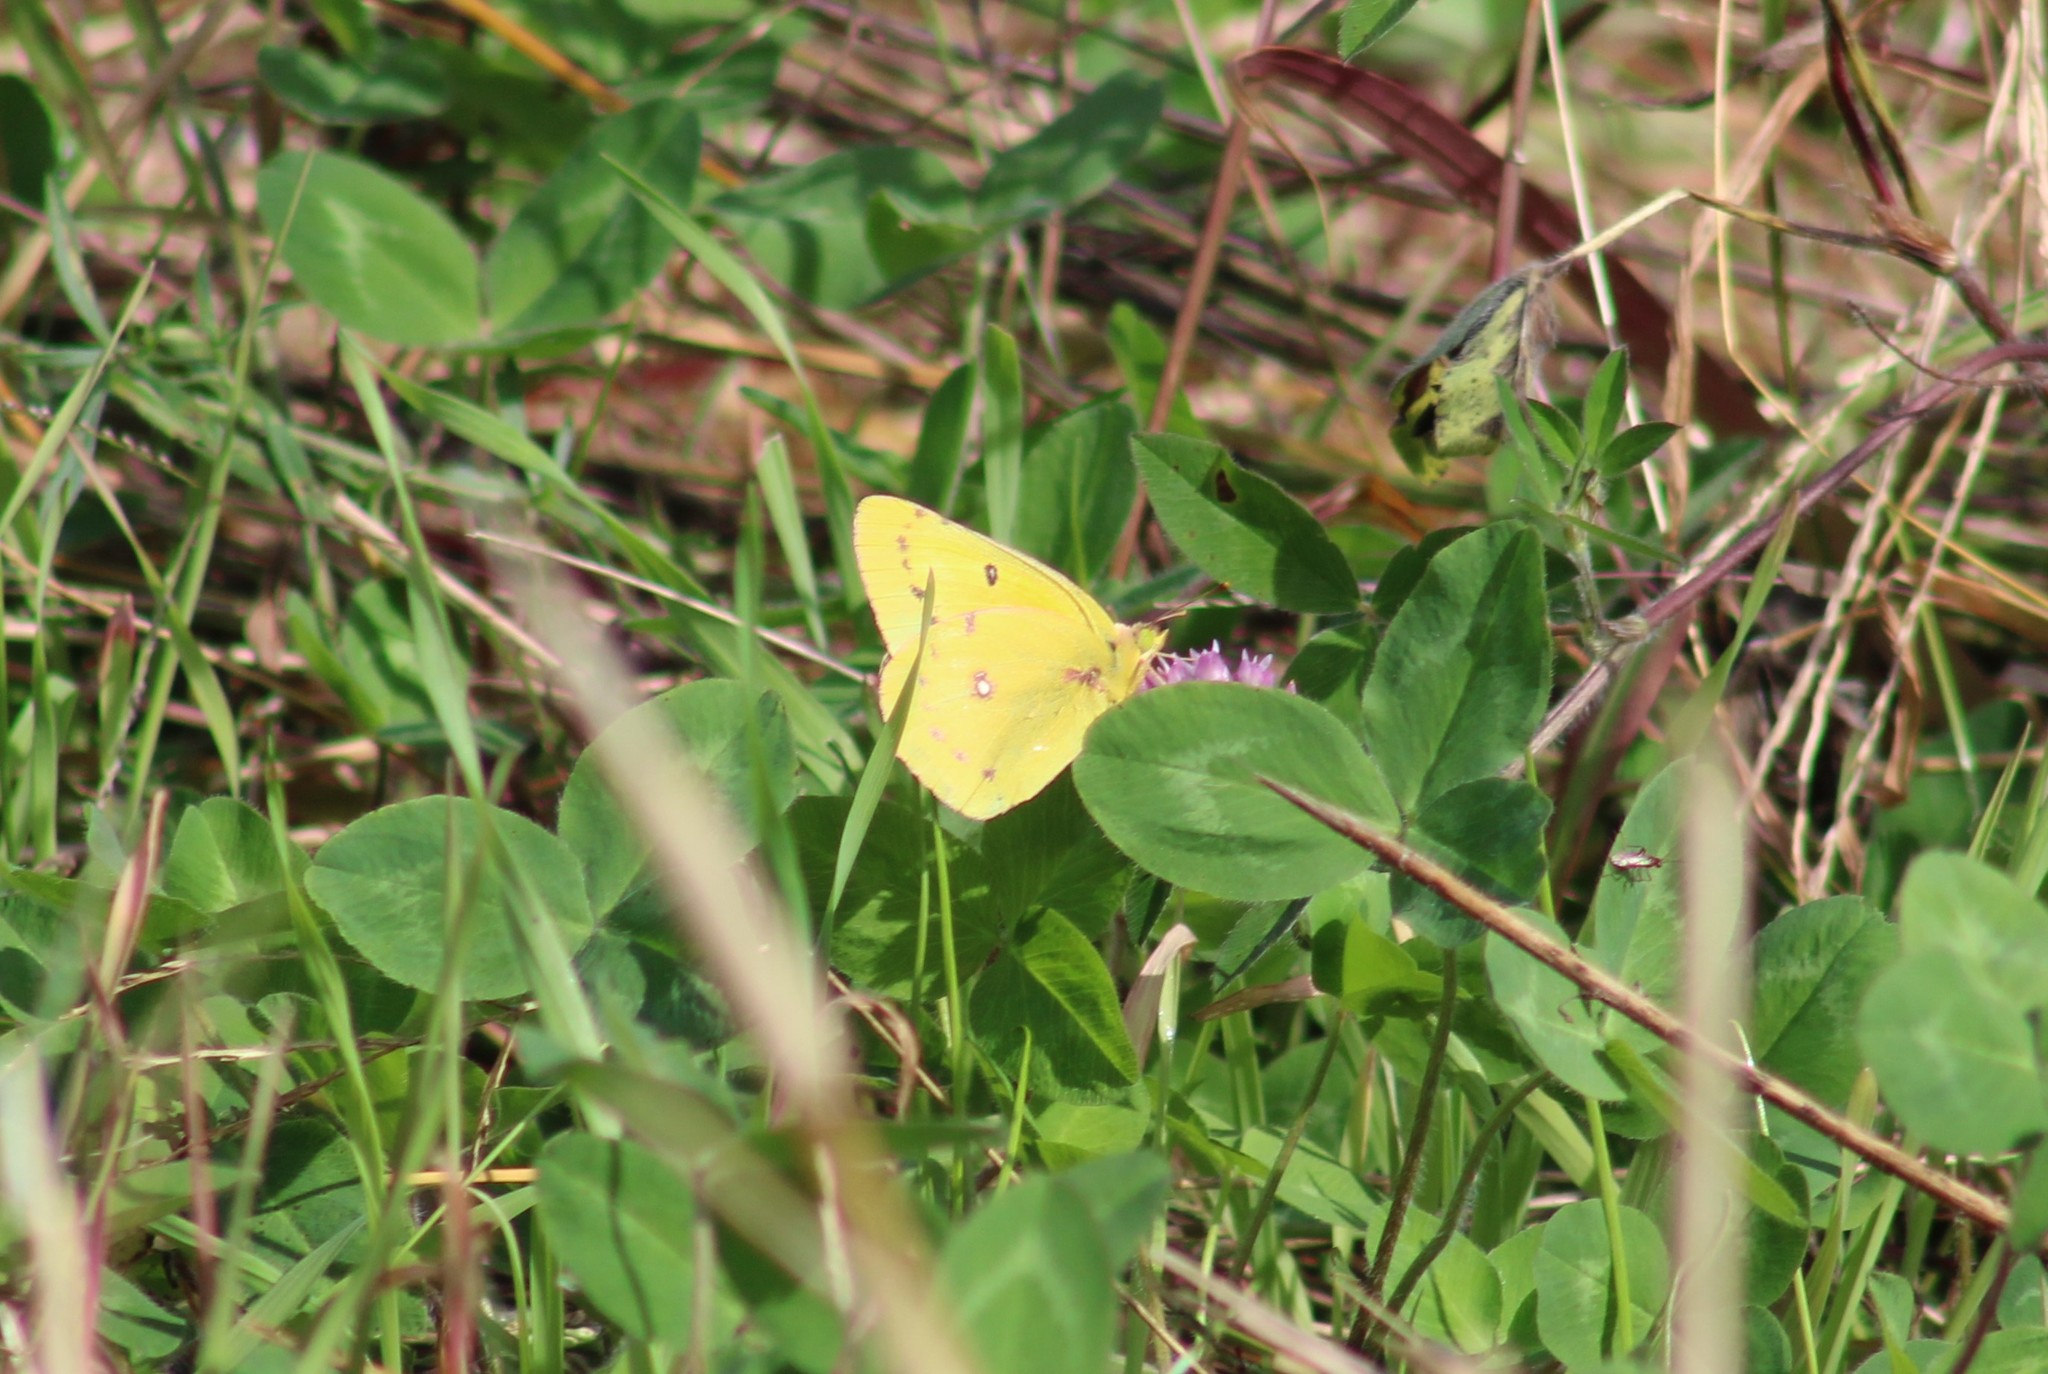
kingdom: Animalia
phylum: Arthropoda
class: Insecta
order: Lepidoptera
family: Pieridae
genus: Colias
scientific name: Colias eurytheme
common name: Alfalfa butterfly
